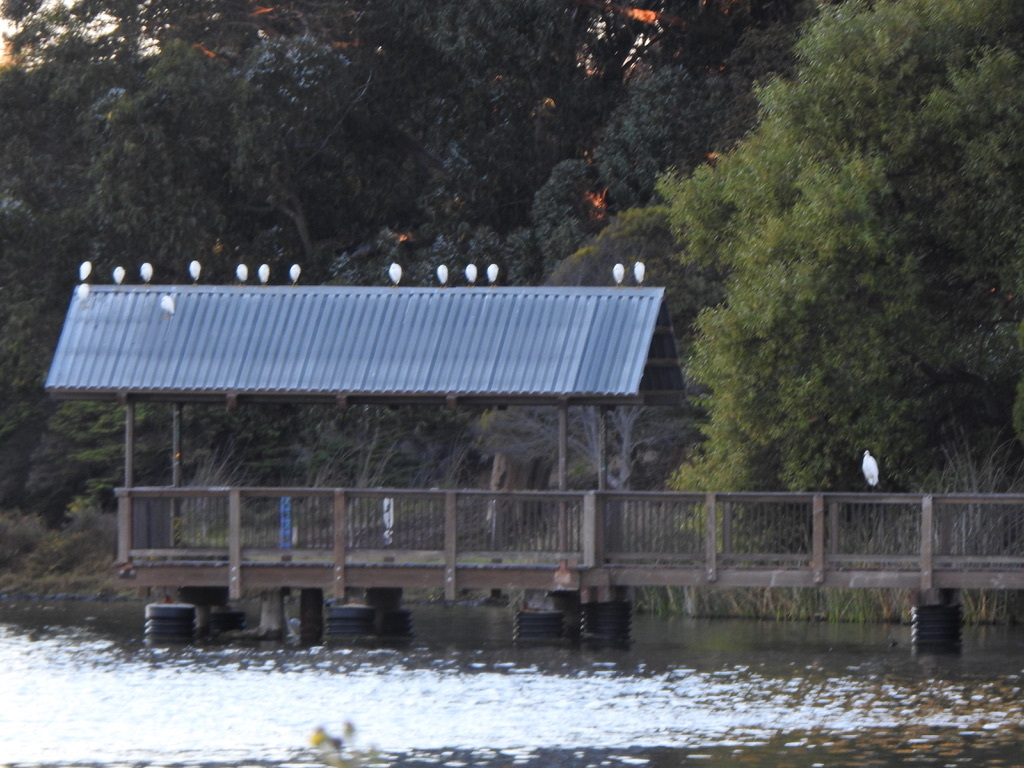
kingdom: Animalia
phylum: Chordata
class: Aves
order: Pelecaniformes
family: Ardeidae
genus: Egretta
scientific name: Egretta thula
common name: Snowy egret
